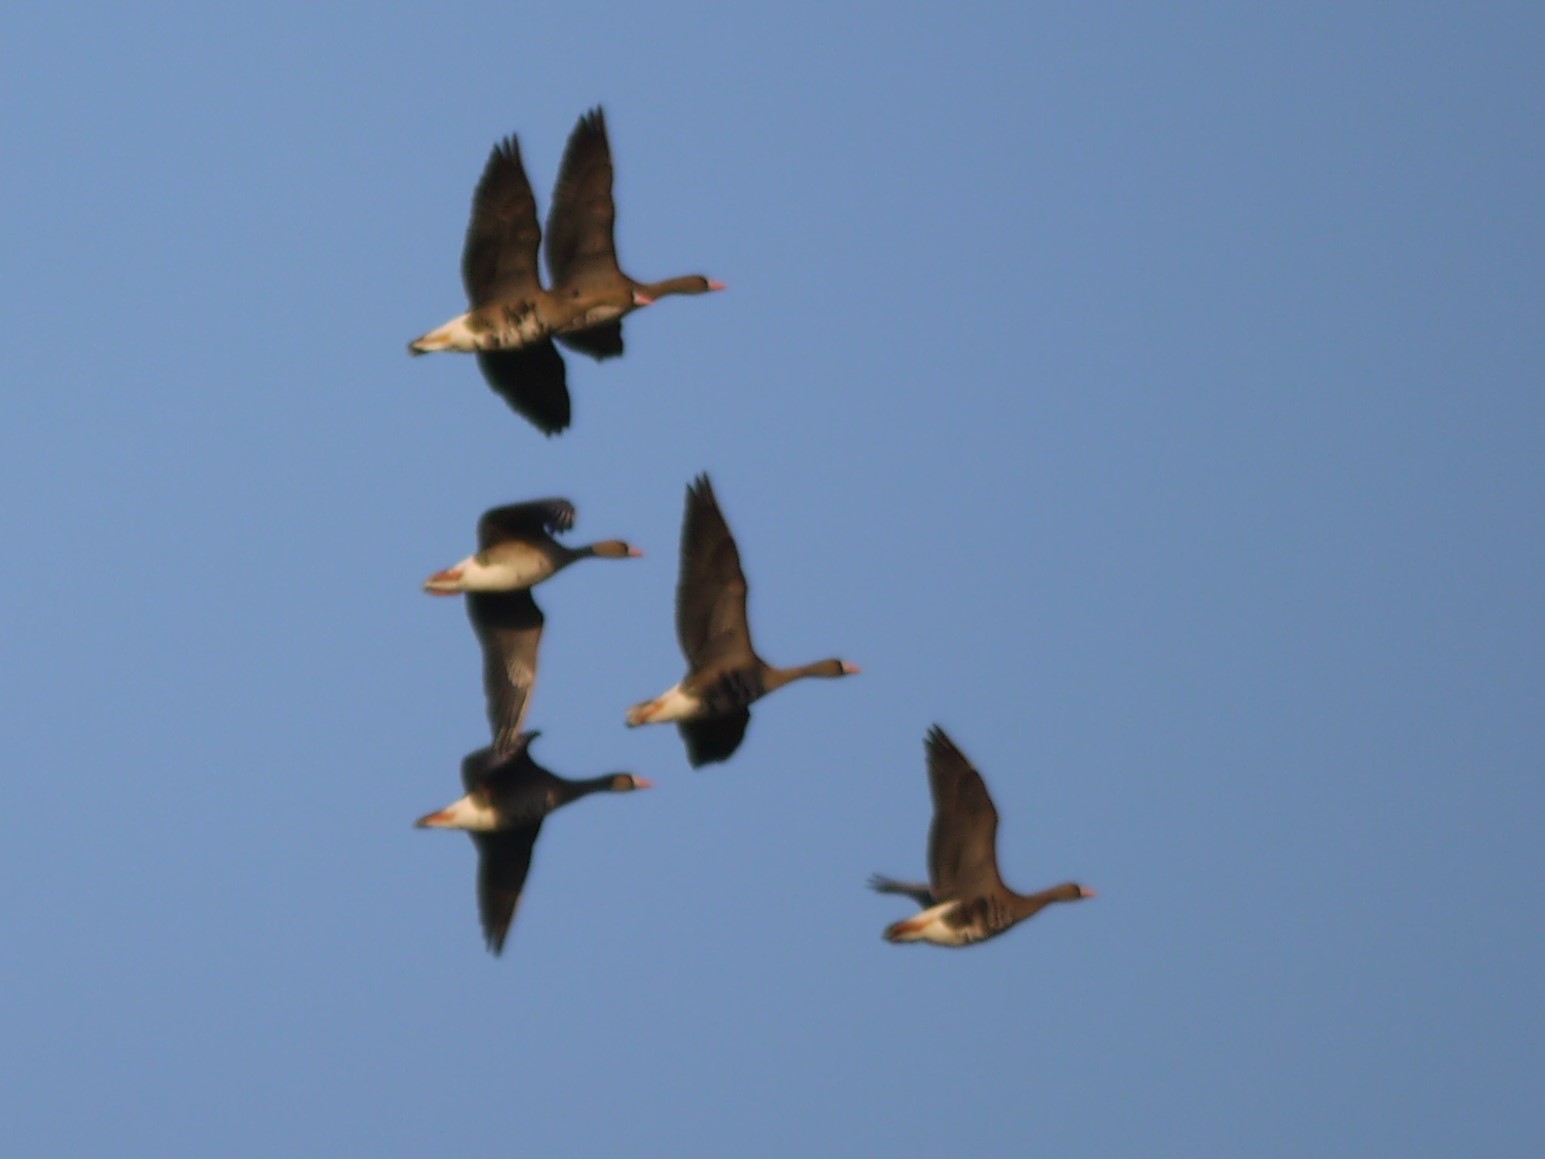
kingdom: Animalia
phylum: Chordata
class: Aves
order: Anseriformes
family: Anatidae
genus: Anser
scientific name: Anser albifrons
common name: Greater white-fronted goose
